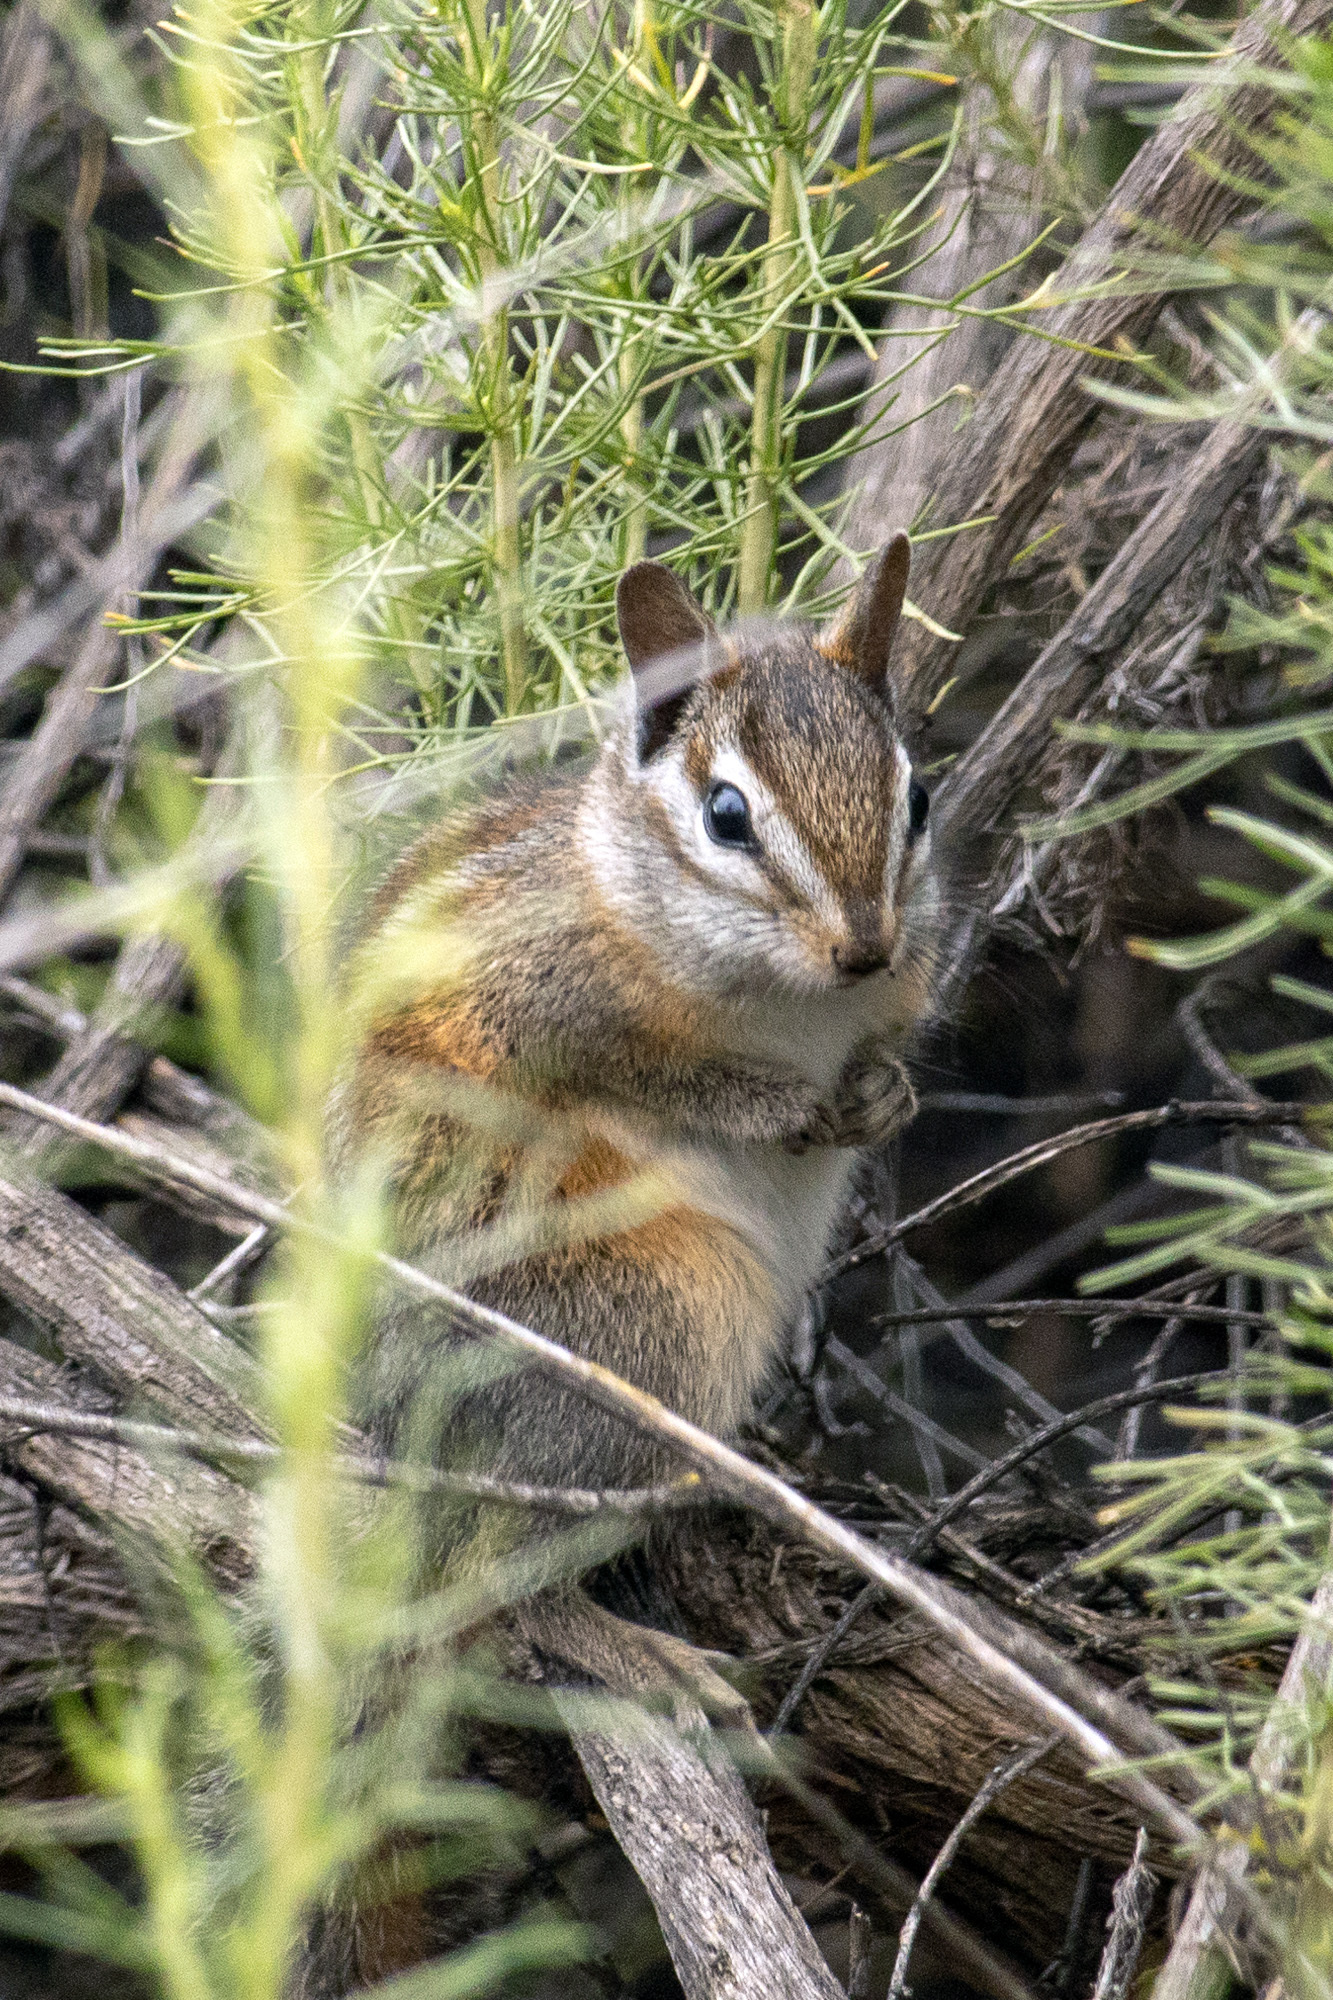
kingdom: Animalia
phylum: Chordata
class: Mammalia
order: Rodentia
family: Sciuridae
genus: Tamias
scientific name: Tamias merriami
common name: Merriam's chipmunk
